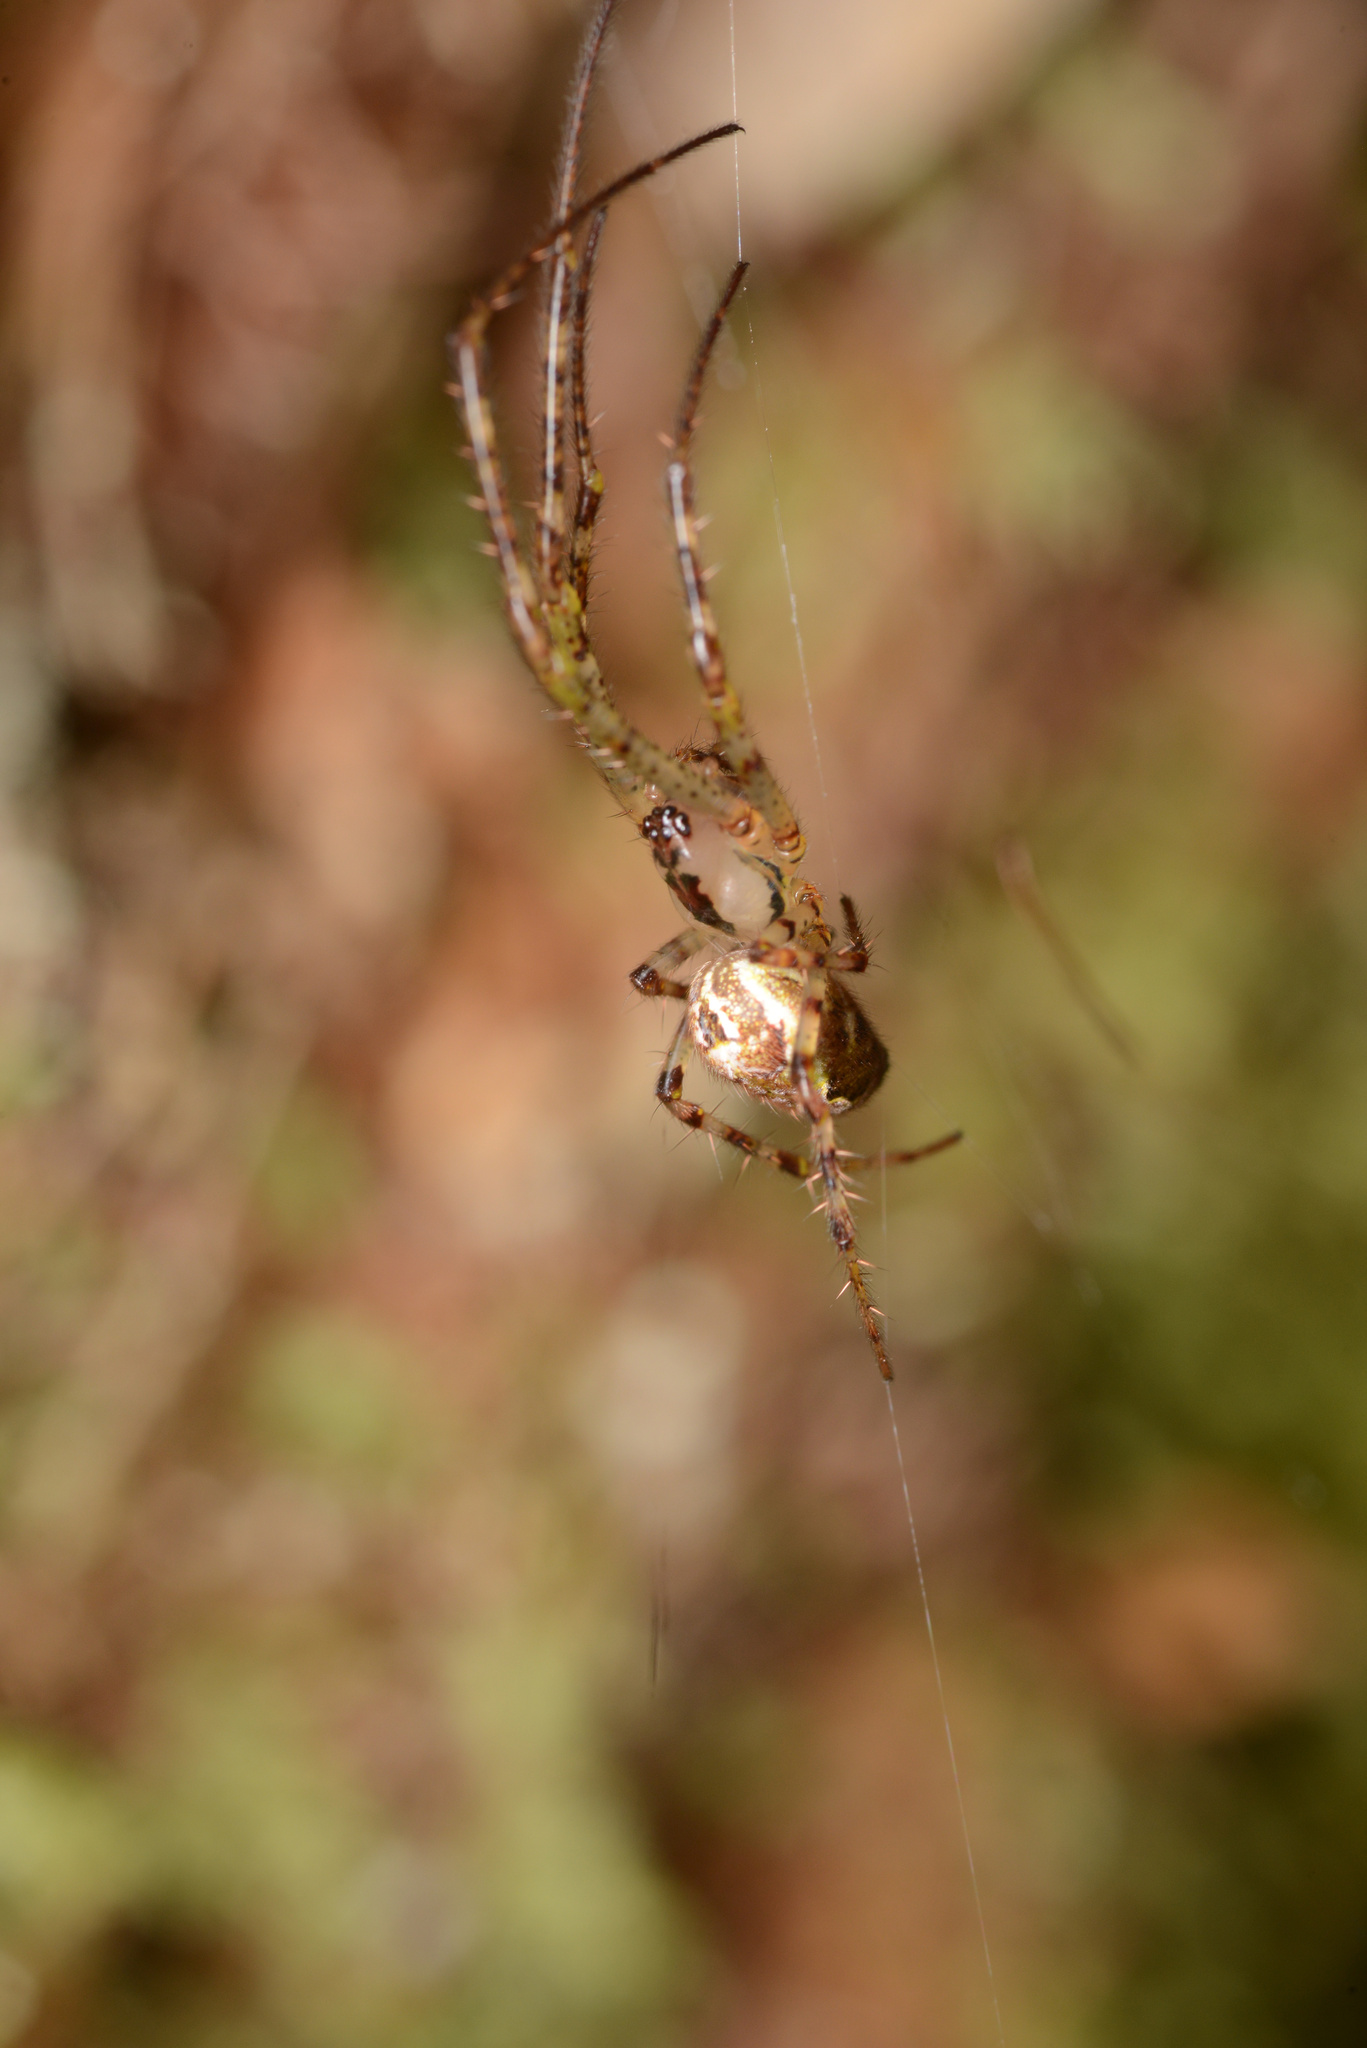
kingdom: Animalia
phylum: Arthropoda
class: Arachnida
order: Araneae
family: Araneidae
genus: Plebs
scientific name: Plebs eburnus
